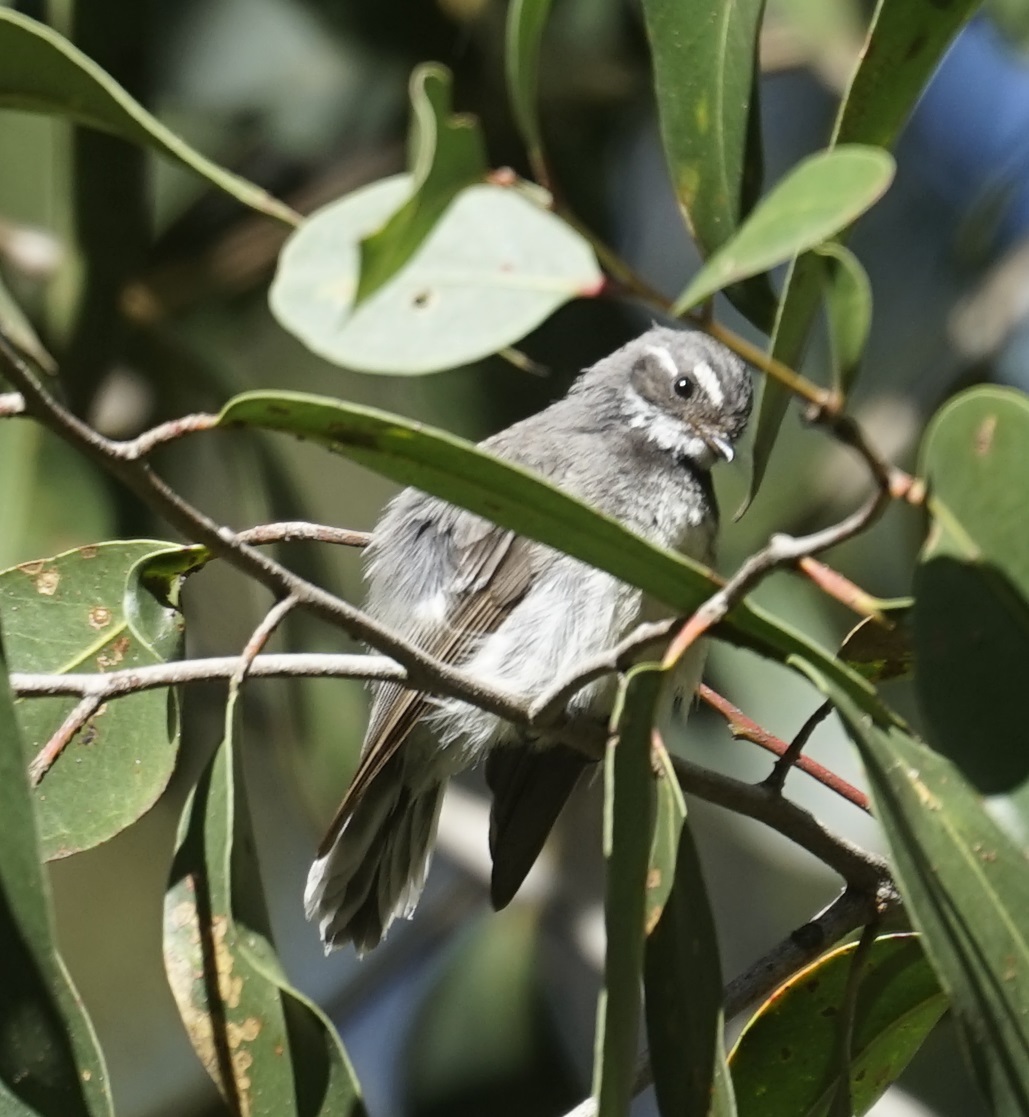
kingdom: Animalia
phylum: Chordata
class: Aves
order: Passeriformes
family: Rhipiduridae
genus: Rhipidura
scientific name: Rhipidura albiscapa
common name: Grey fantail
